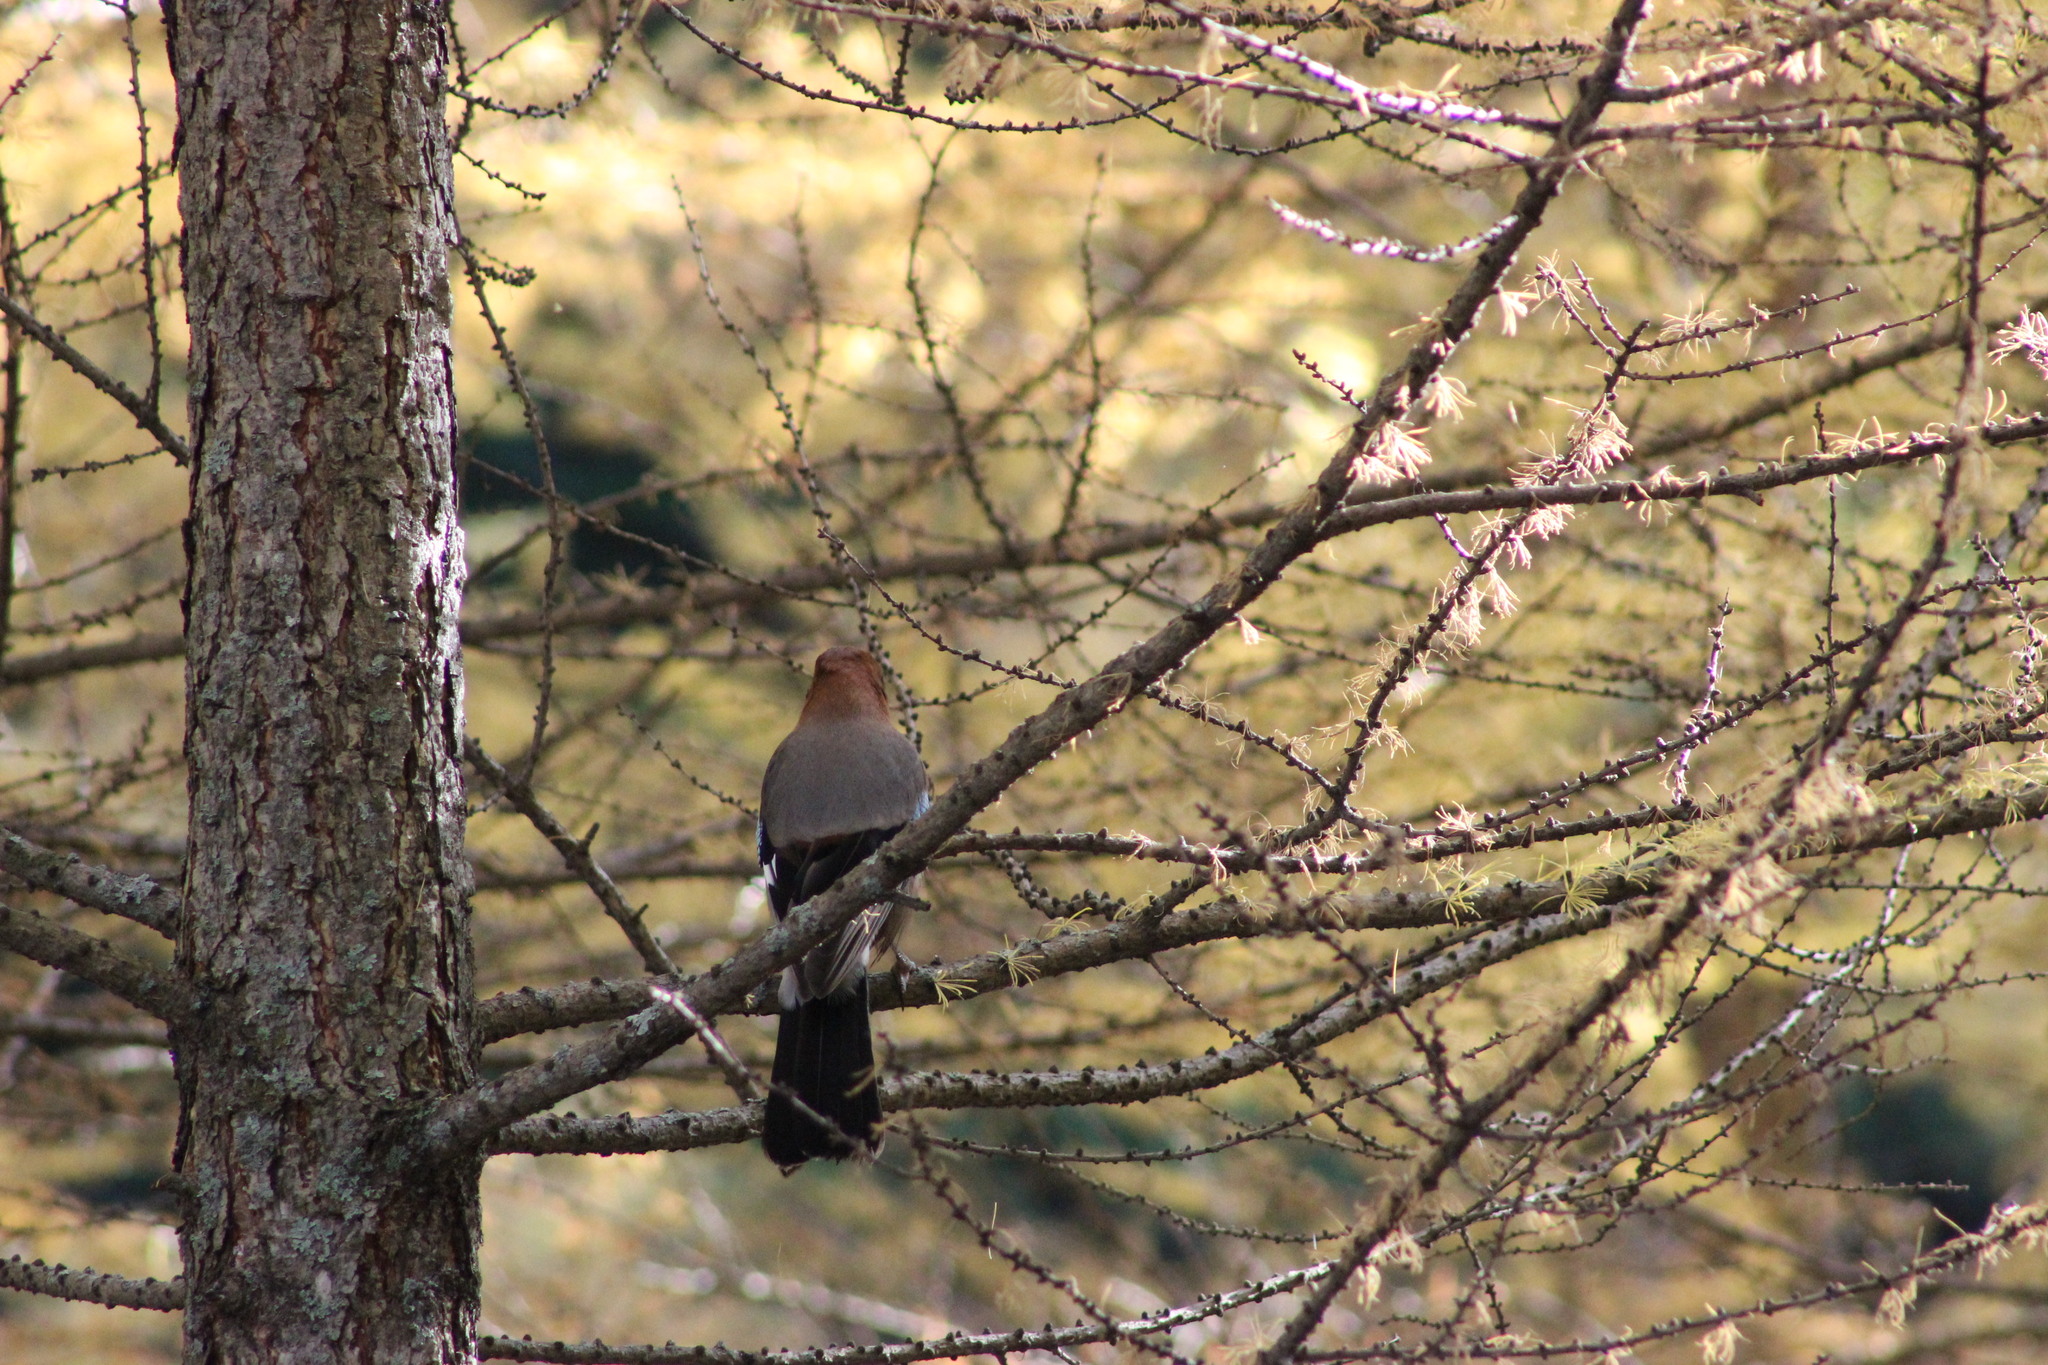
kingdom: Animalia
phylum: Chordata
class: Aves
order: Passeriformes
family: Corvidae
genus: Garrulus
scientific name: Garrulus glandarius
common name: Eurasian jay
